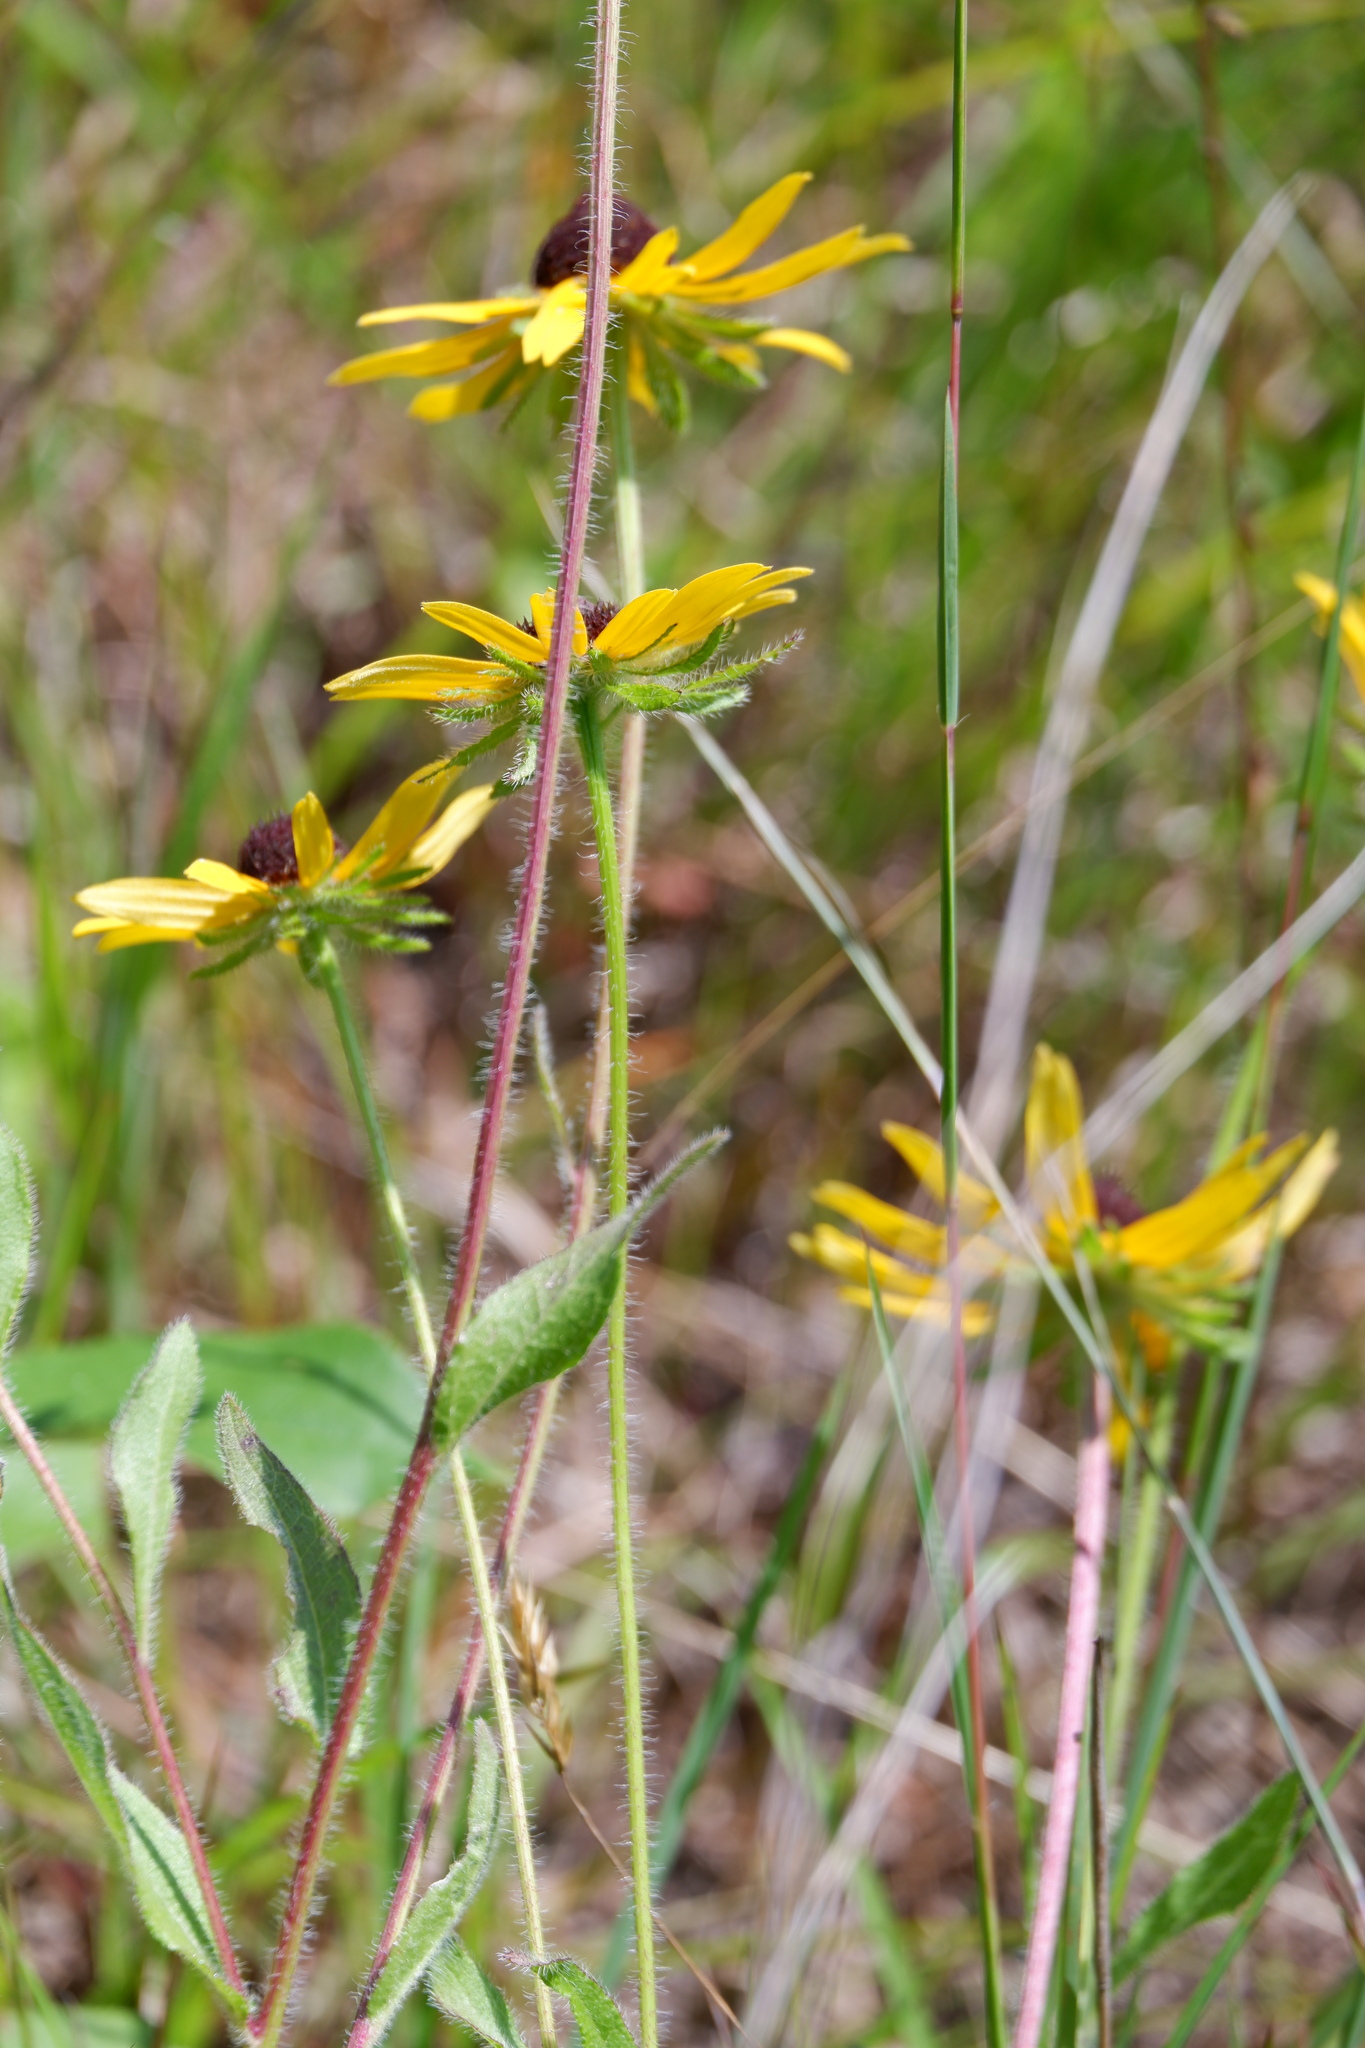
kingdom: Plantae
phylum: Tracheophyta
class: Magnoliopsida
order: Asterales
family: Asteraceae
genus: Rudbeckia
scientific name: Rudbeckia hirta
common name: Black-eyed-susan
